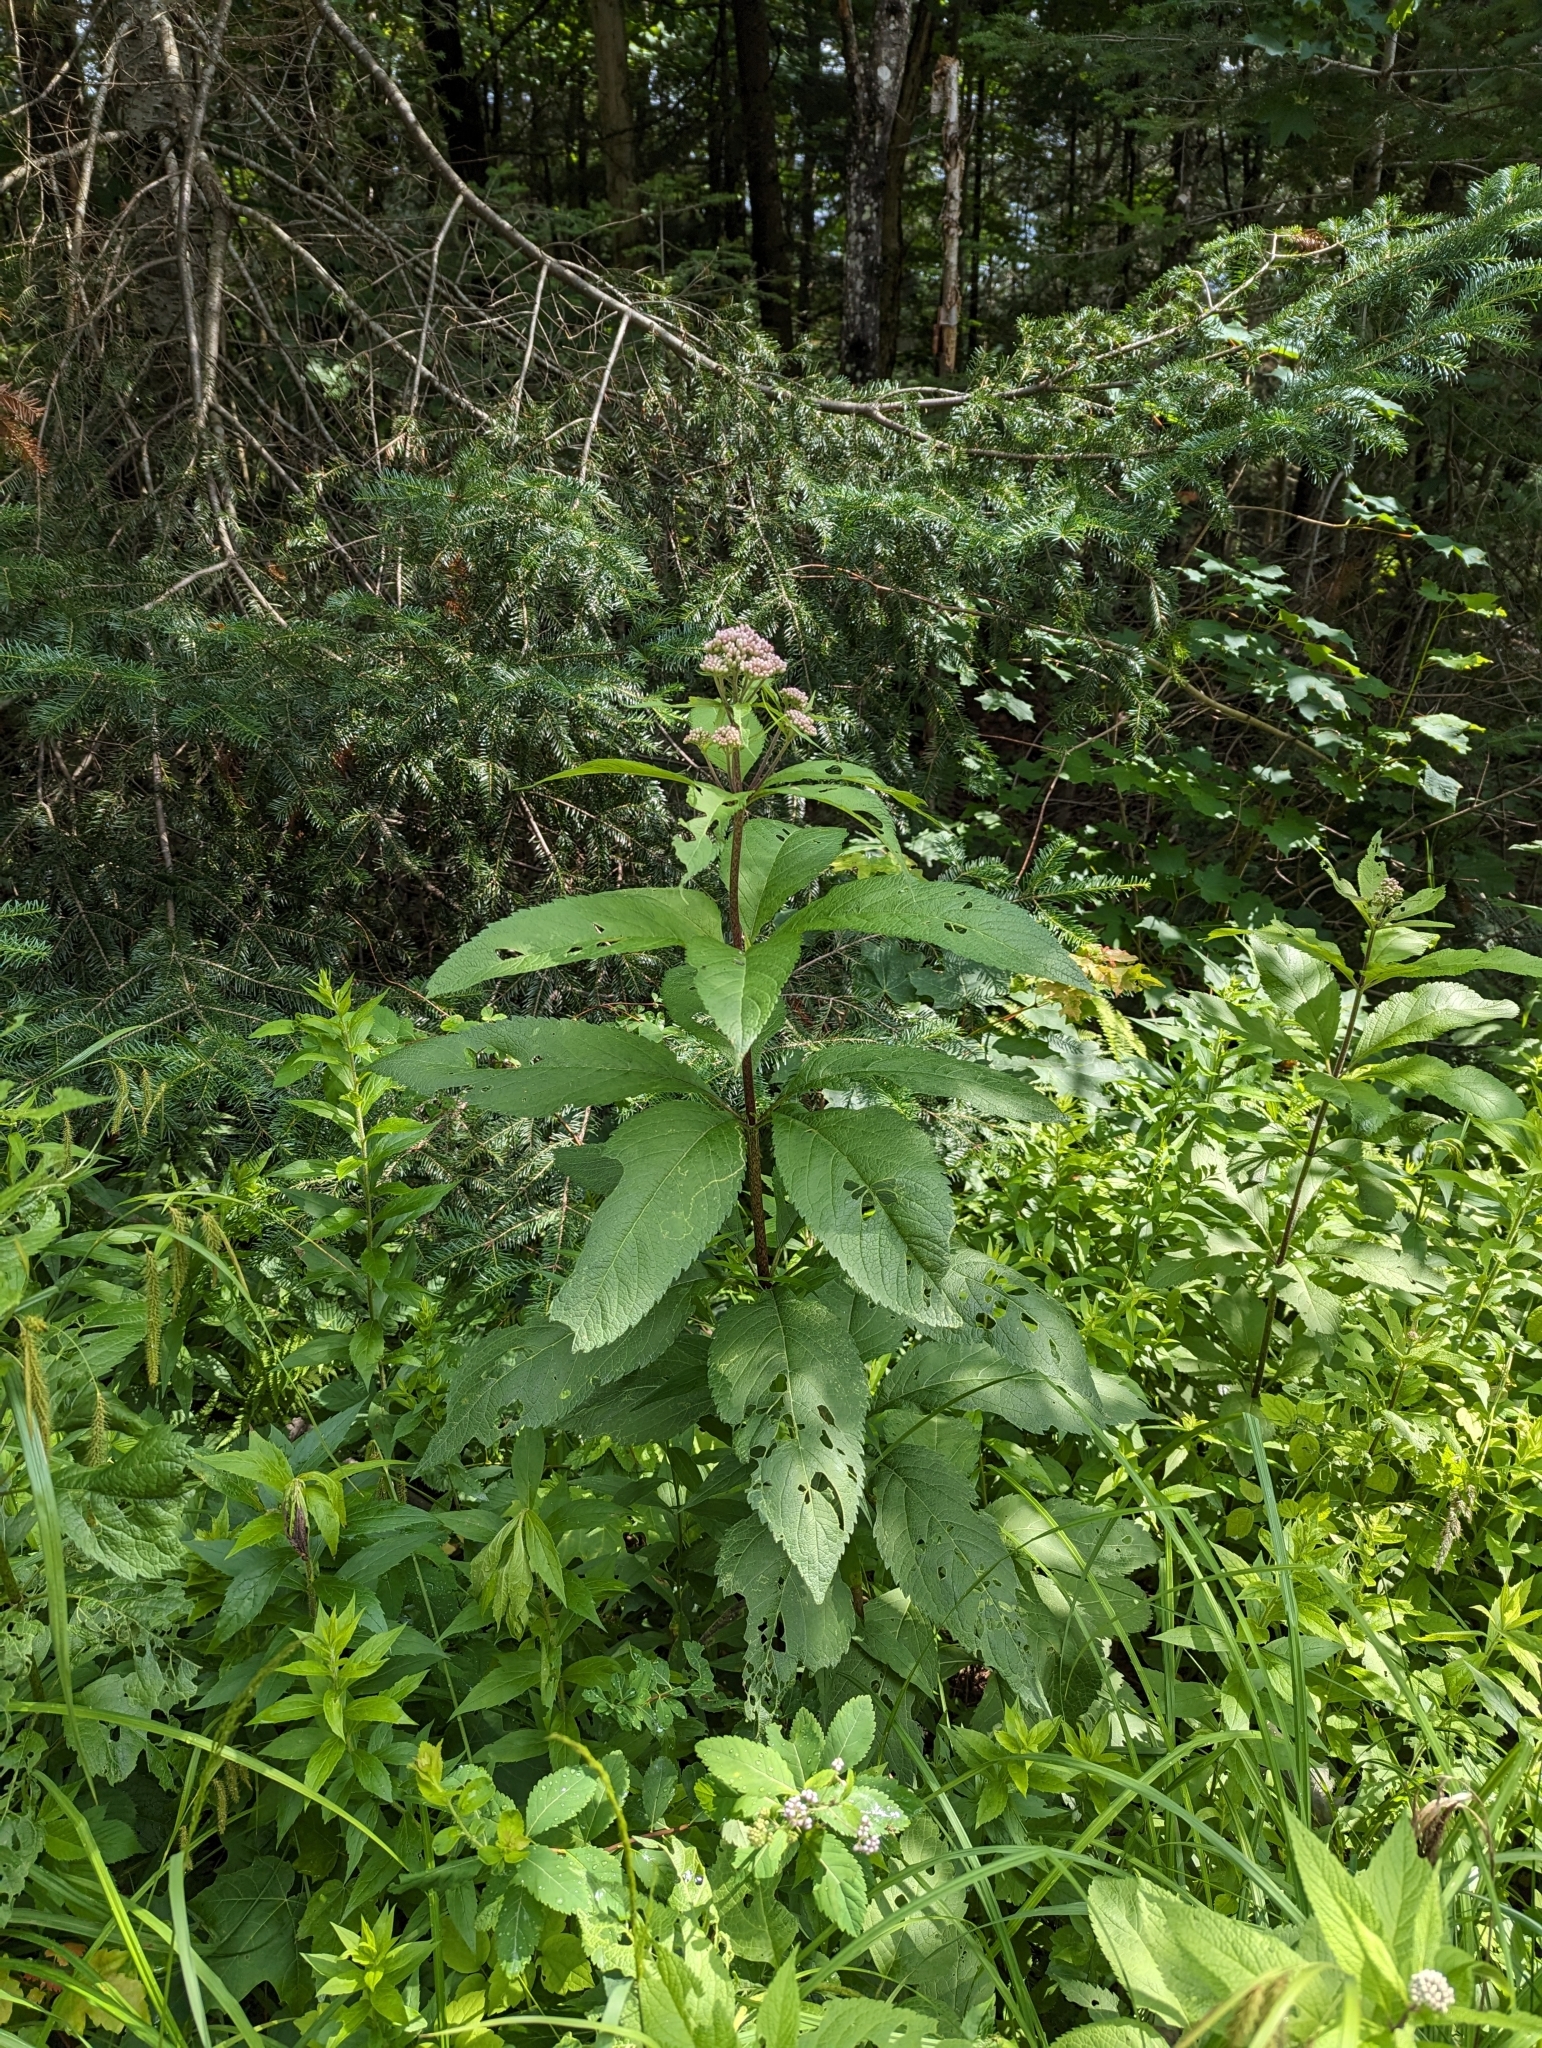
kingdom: Plantae
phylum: Tracheophyta
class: Magnoliopsida
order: Asterales
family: Asteraceae
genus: Eutrochium
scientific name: Eutrochium maculatum
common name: Spotted joe pye weed
